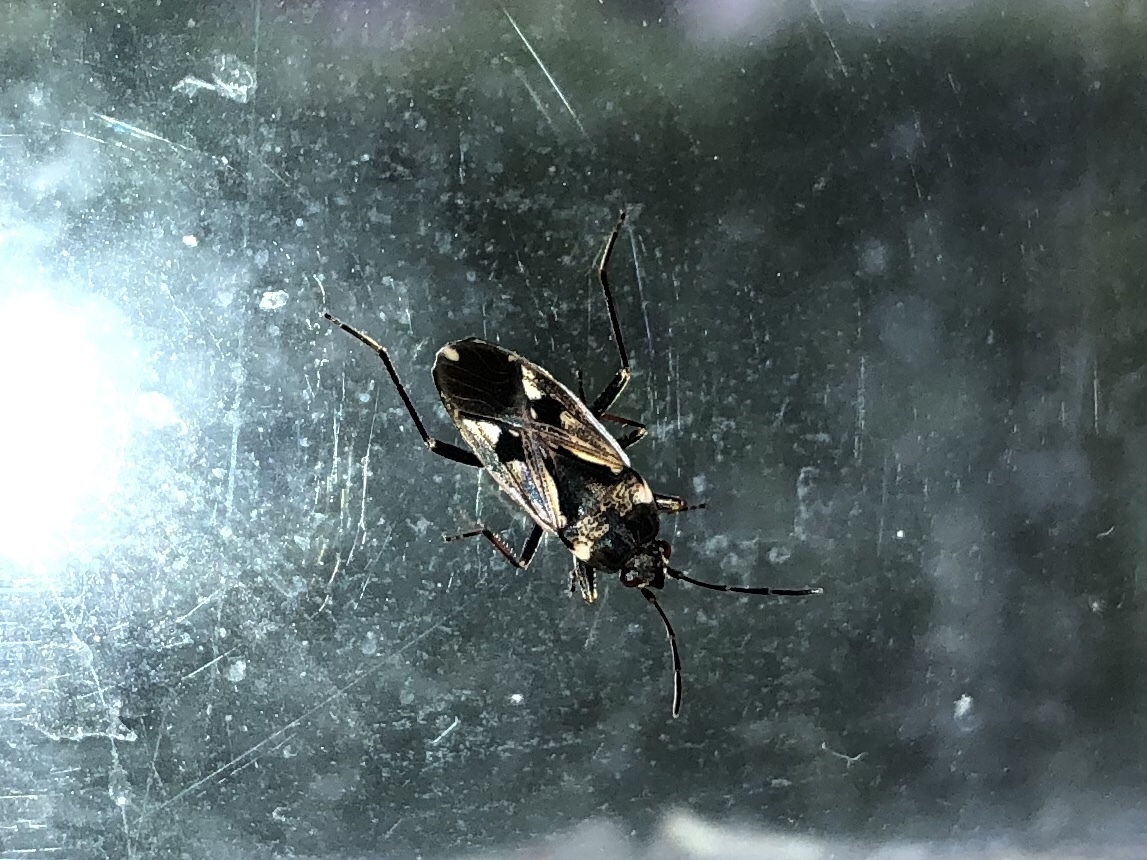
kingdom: Animalia
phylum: Arthropoda
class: Insecta
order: Hemiptera
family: Rhyparochromidae
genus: Rhyparochromus
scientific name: Rhyparochromus vulgaris
